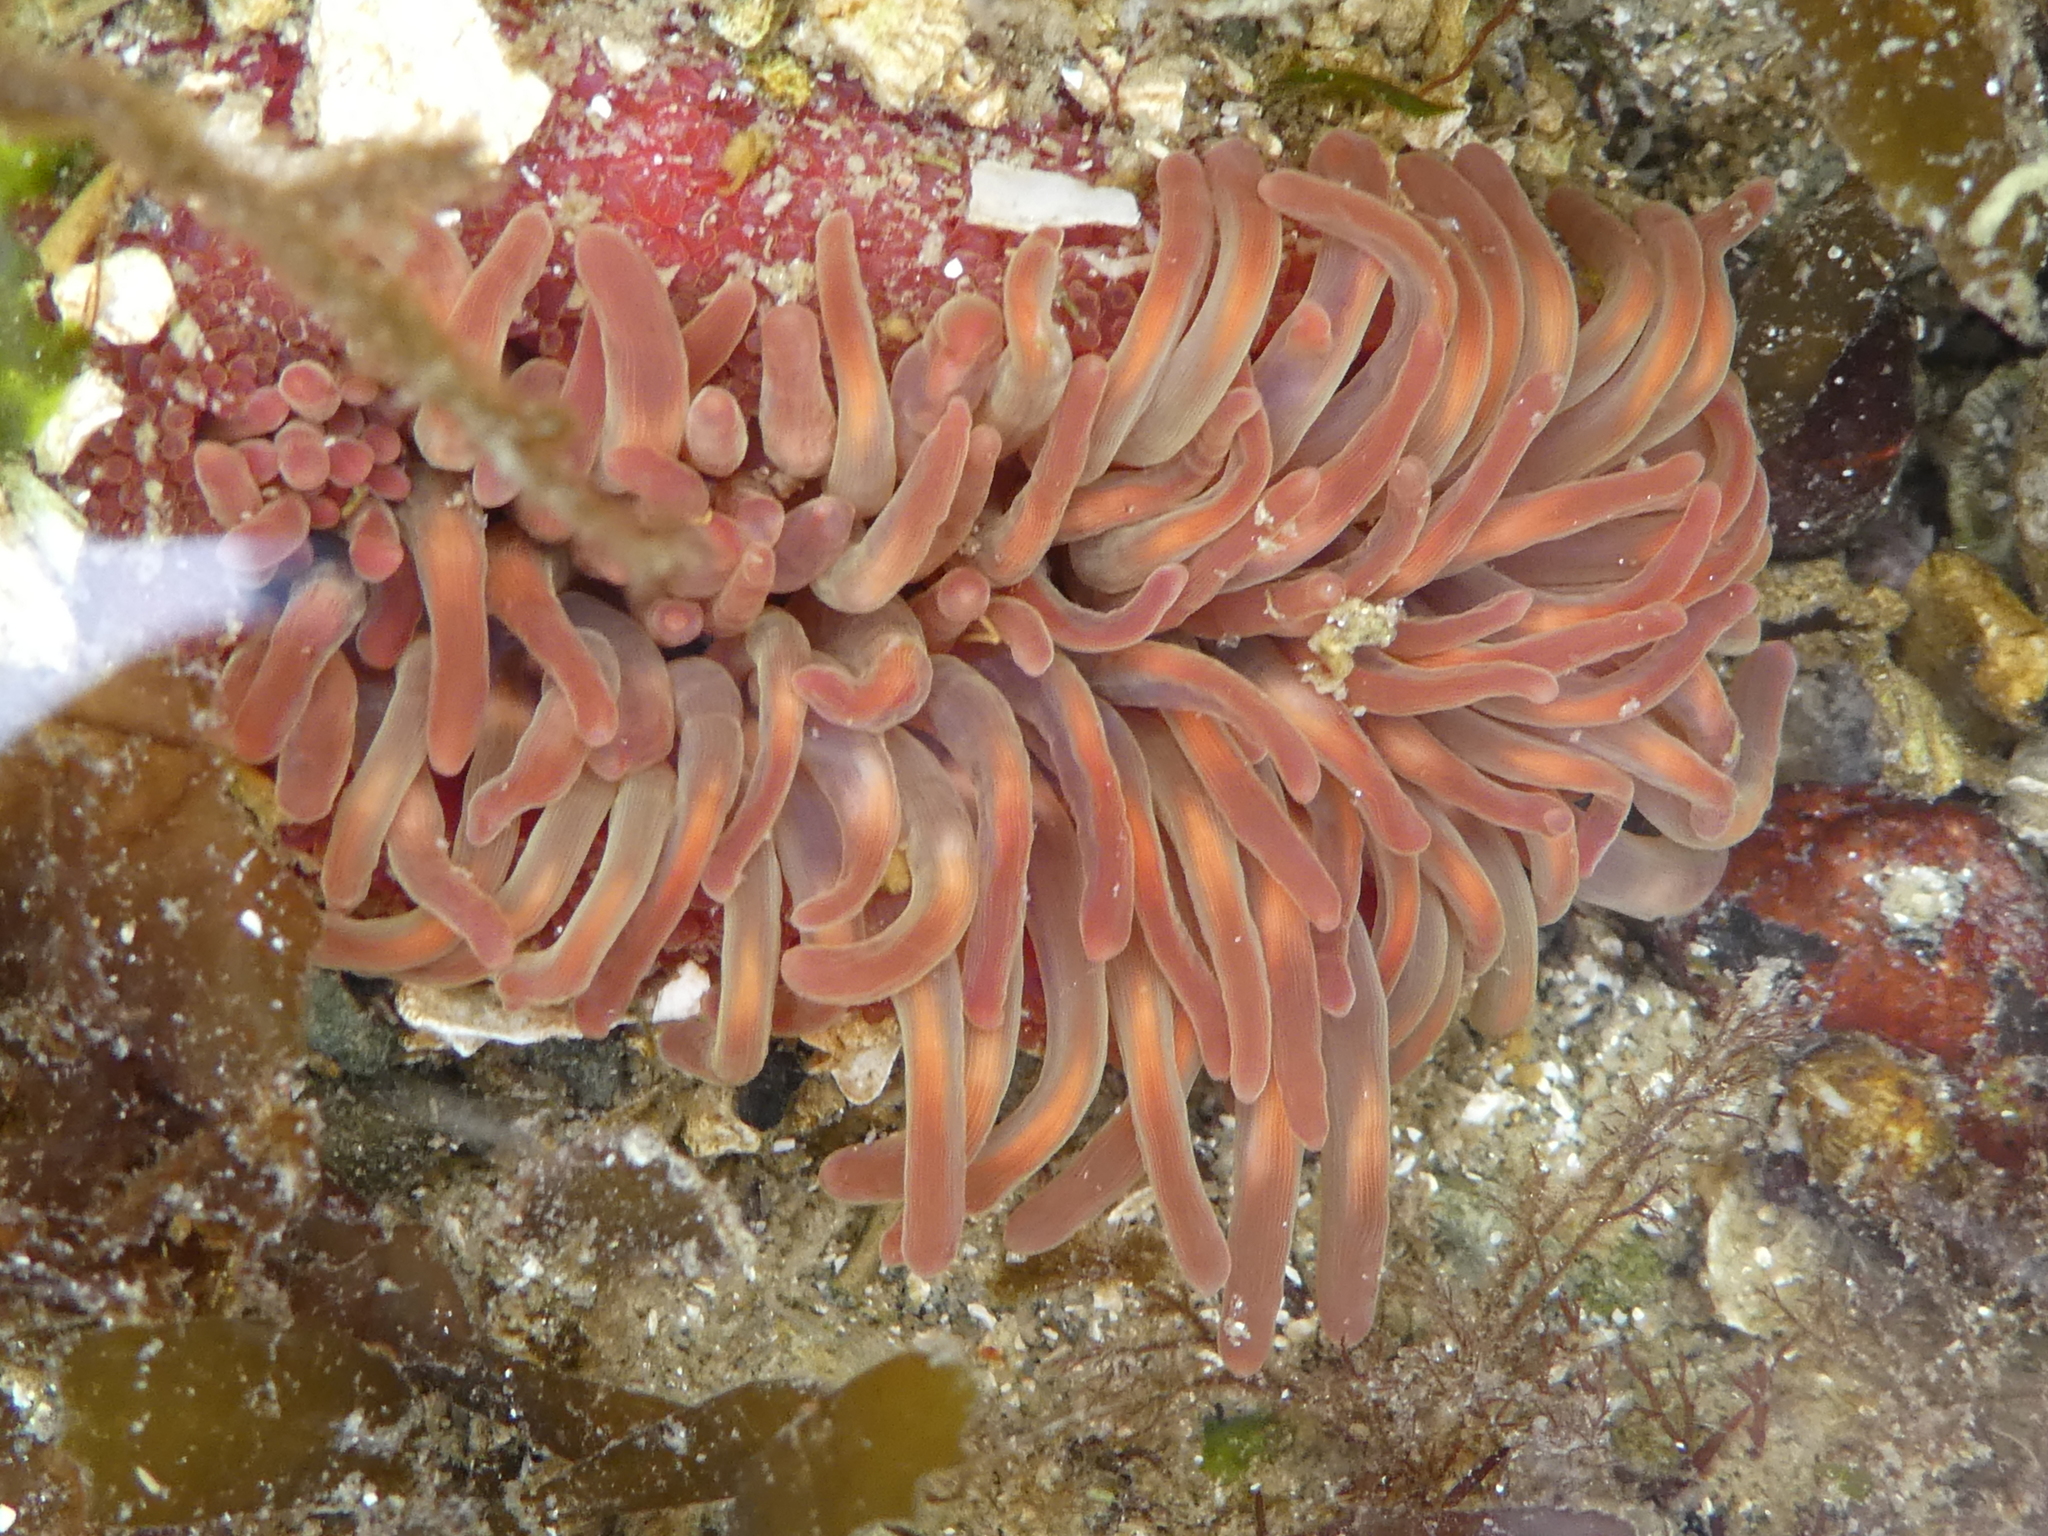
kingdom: Animalia
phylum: Cnidaria
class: Anthozoa
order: Actiniaria
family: Actiniidae
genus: Urticina
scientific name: Urticina clandestina
